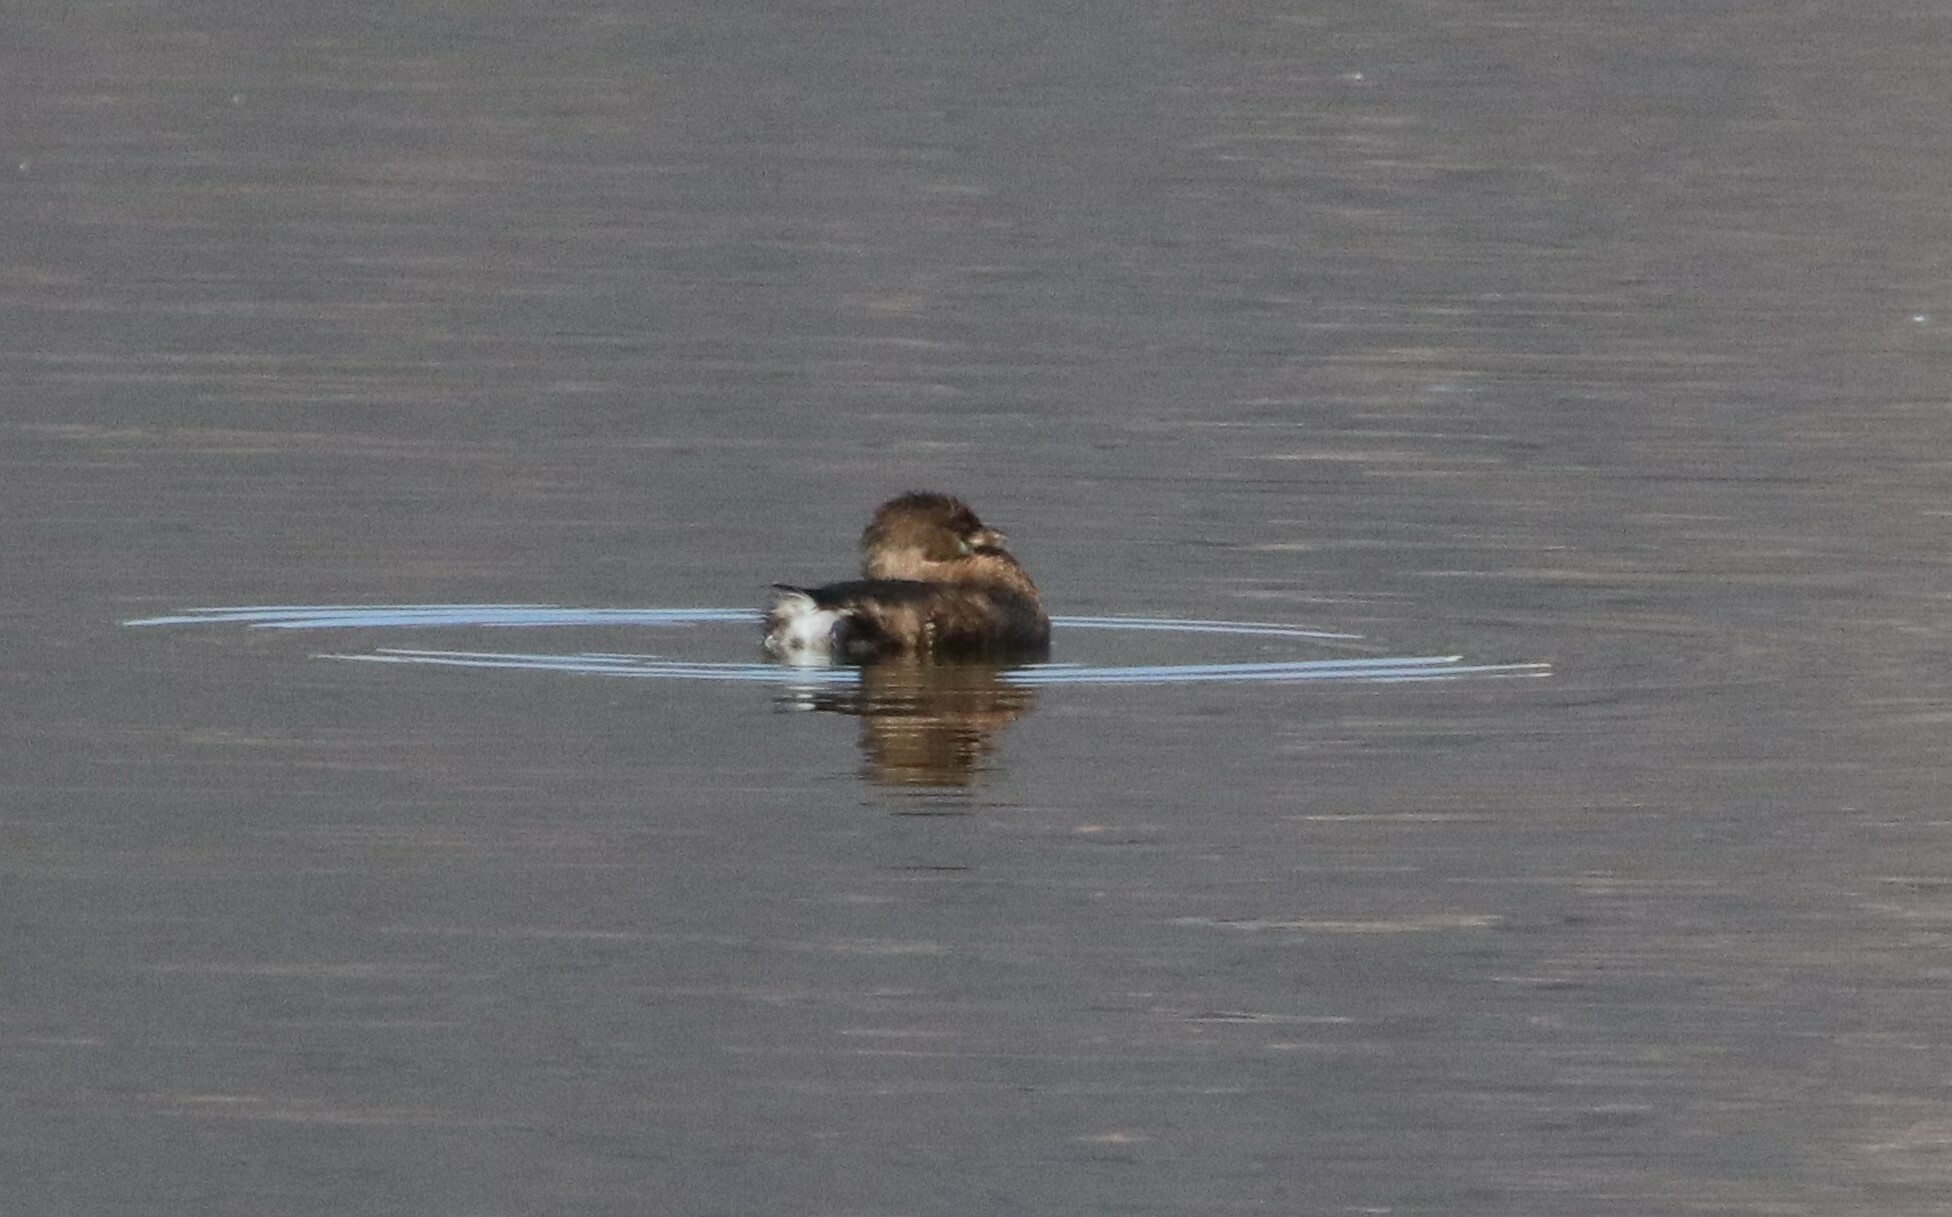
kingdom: Animalia
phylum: Chordata
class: Aves
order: Podicipediformes
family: Podicipedidae
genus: Podilymbus
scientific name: Podilymbus podiceps
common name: Pied-billed grebe
